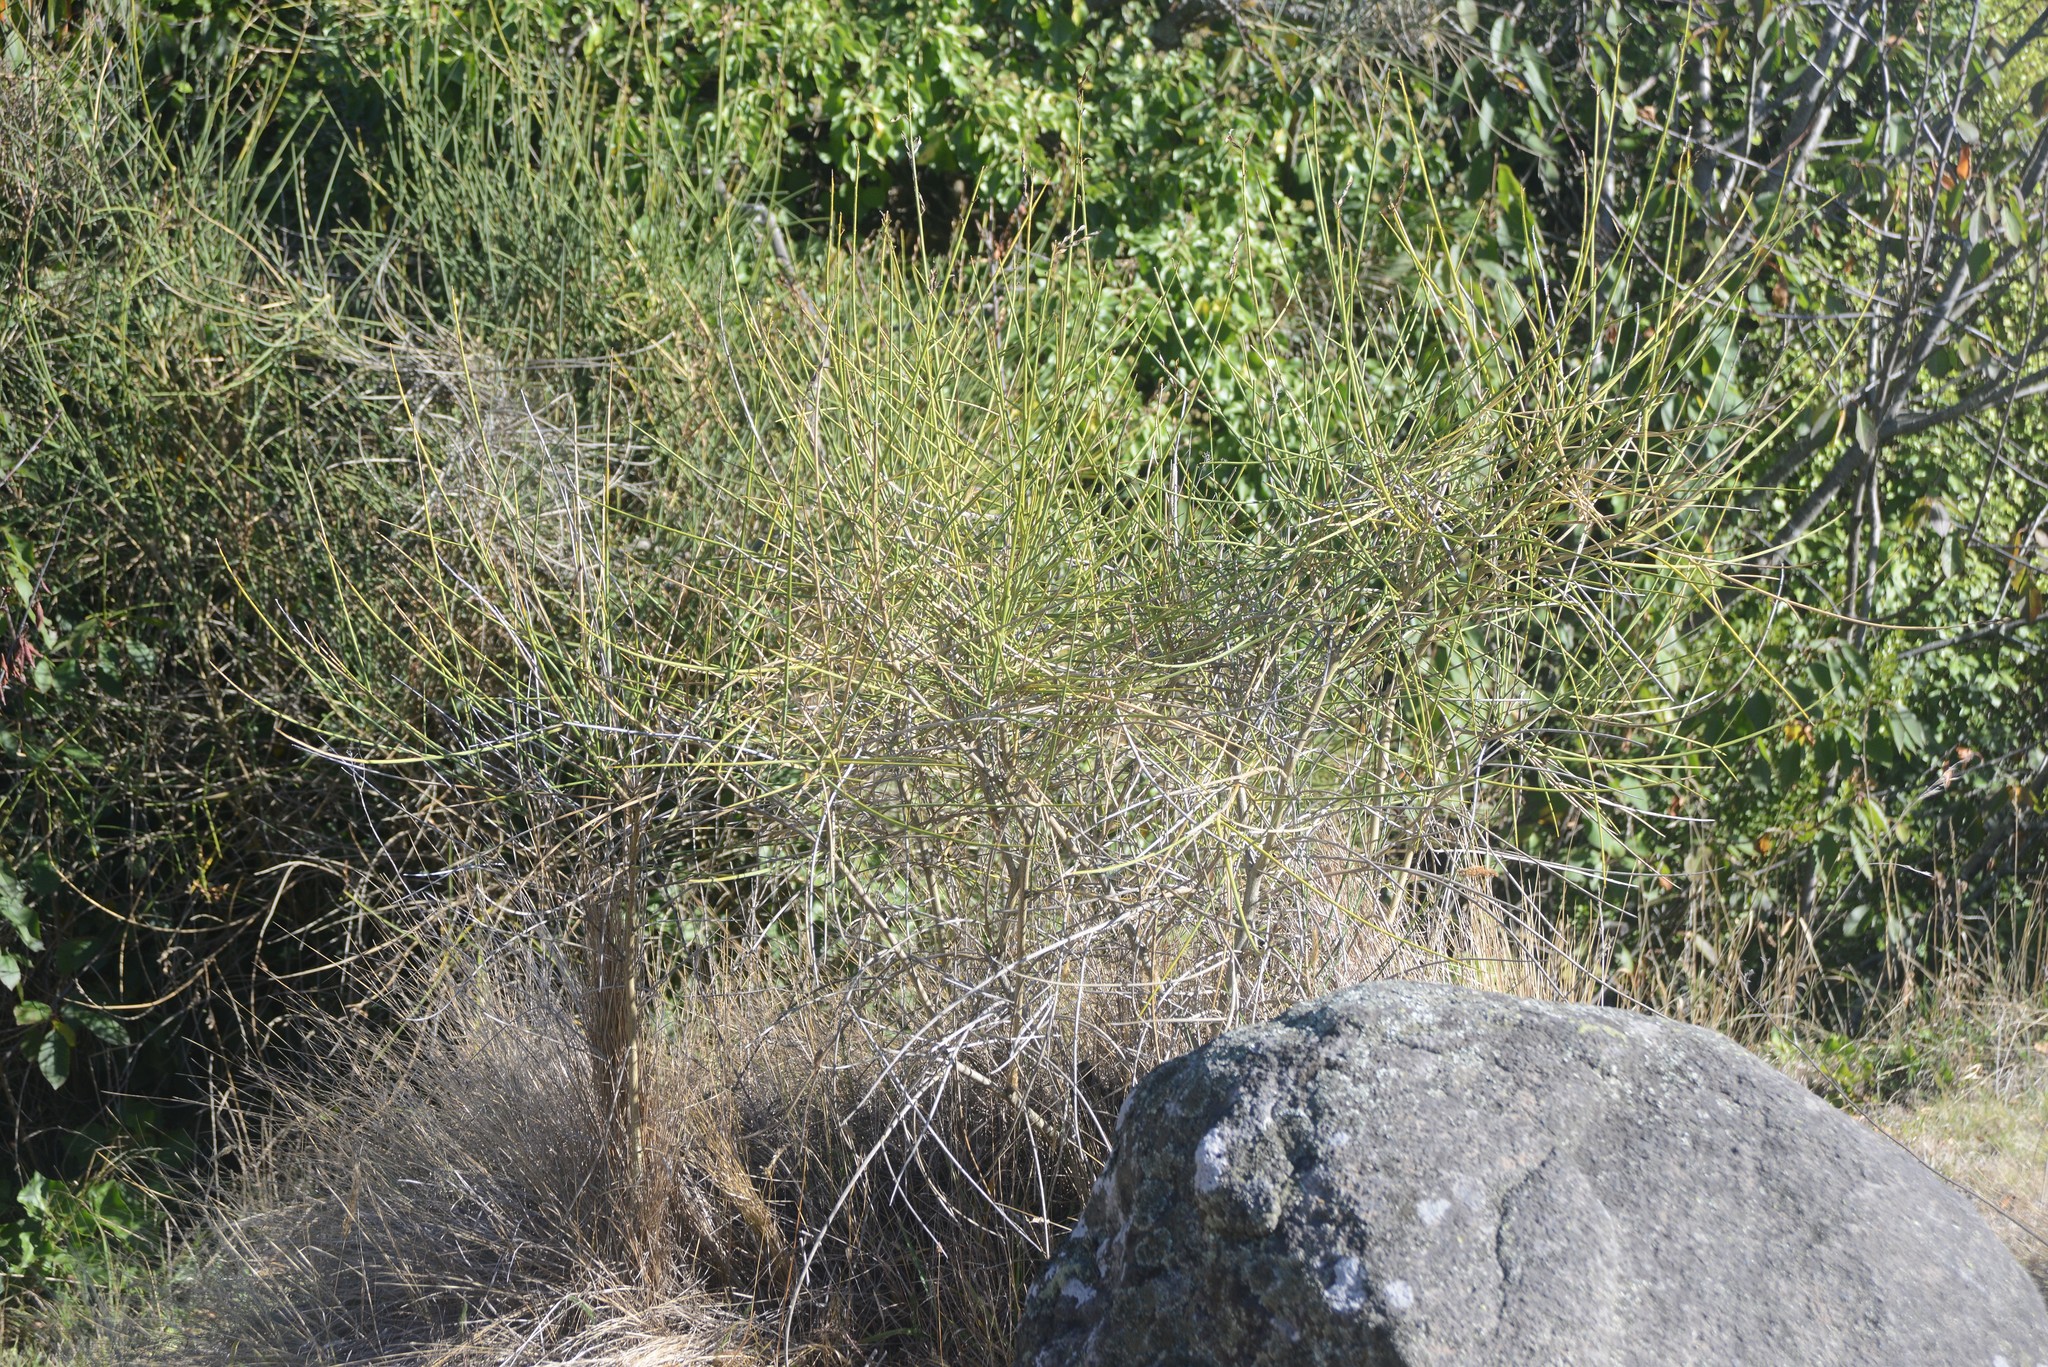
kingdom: Plantae
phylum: Tracheophyta
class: Magnoliopsida
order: Fabales
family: Fabaceae
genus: Spartium
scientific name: Spartium junceum
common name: Spanish broom
